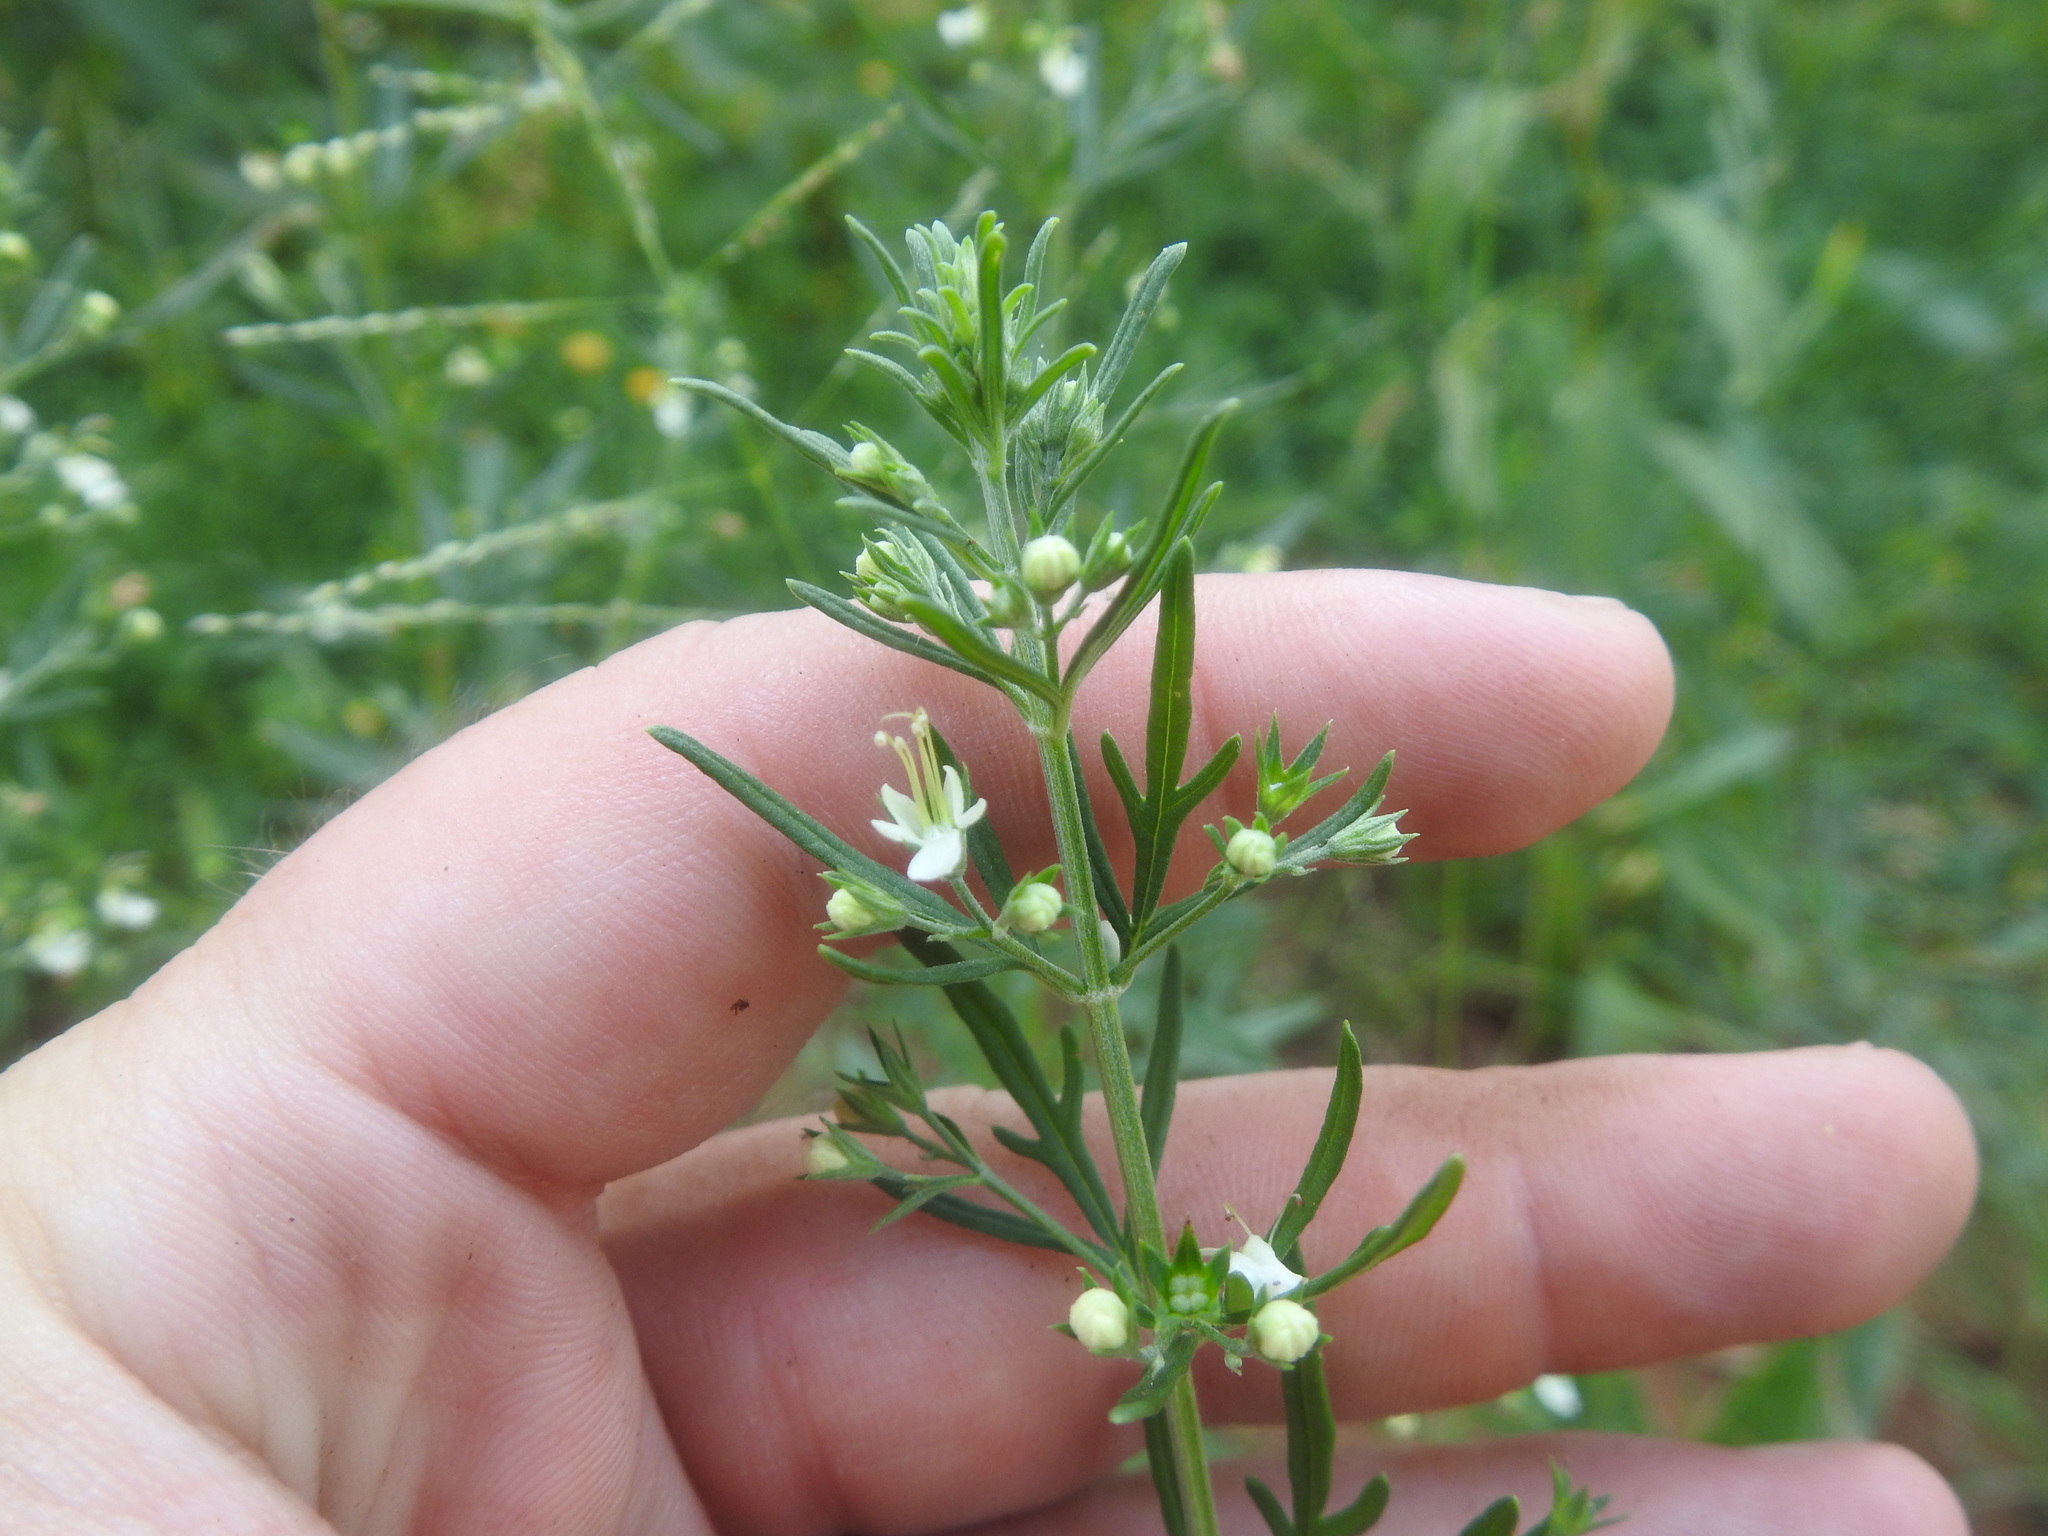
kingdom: Plantae
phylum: Tracheophyta
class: Magnoliopsida
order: Lamiales
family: Lamiaceae
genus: Teucrium
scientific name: Teucrium trifidum
